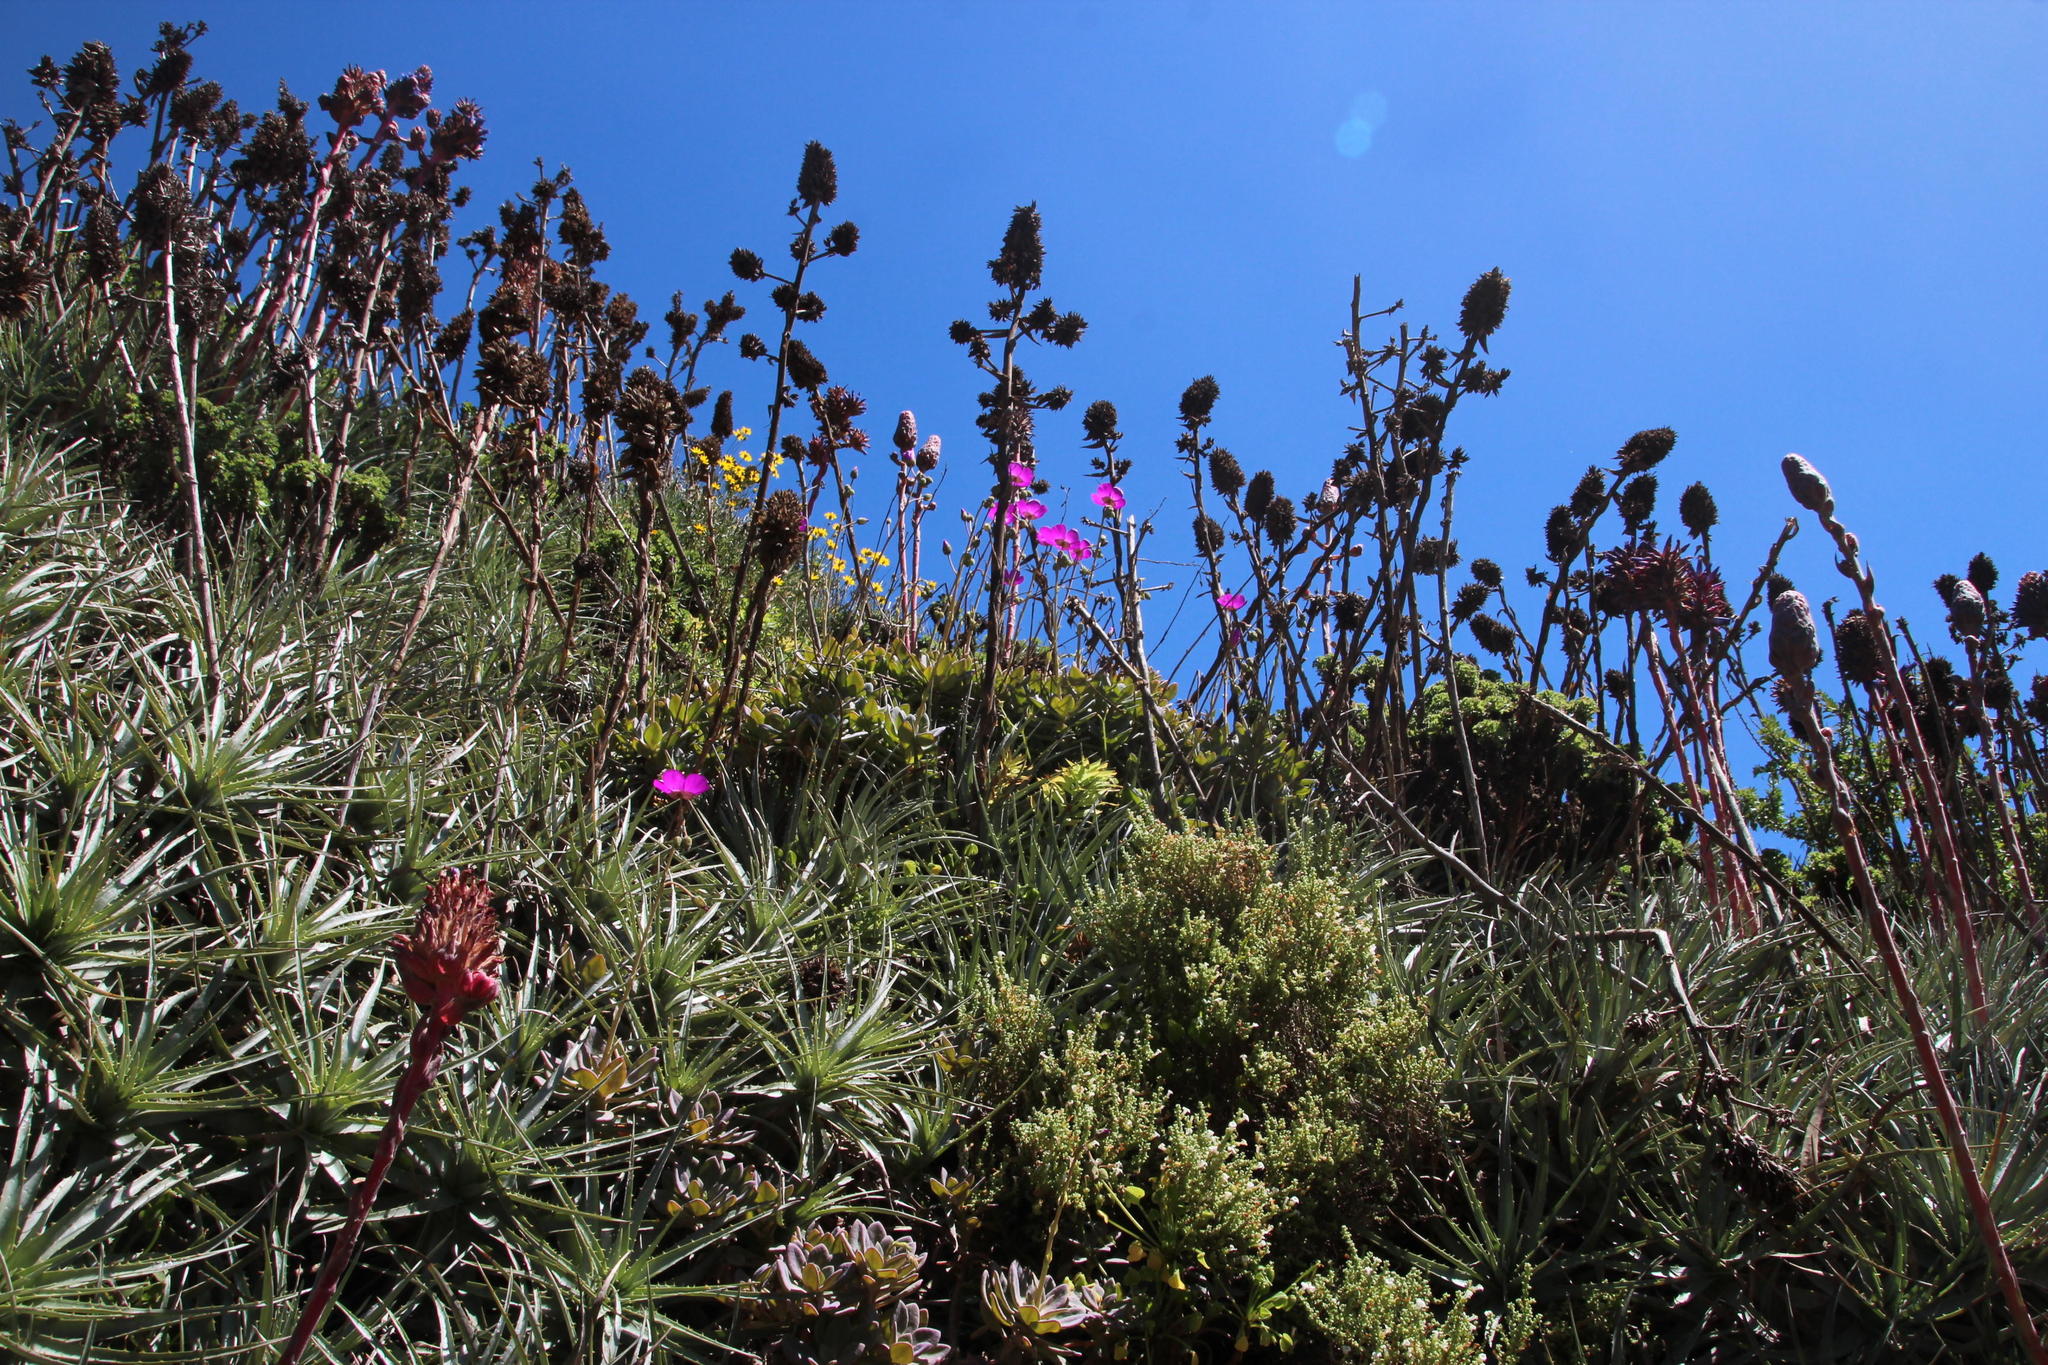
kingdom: Plantae
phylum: Tracheophyta
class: Magnoliopsida
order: Caryophyllales
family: Montiaceae
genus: Cistanthe
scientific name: Cistanthe grandiflora
